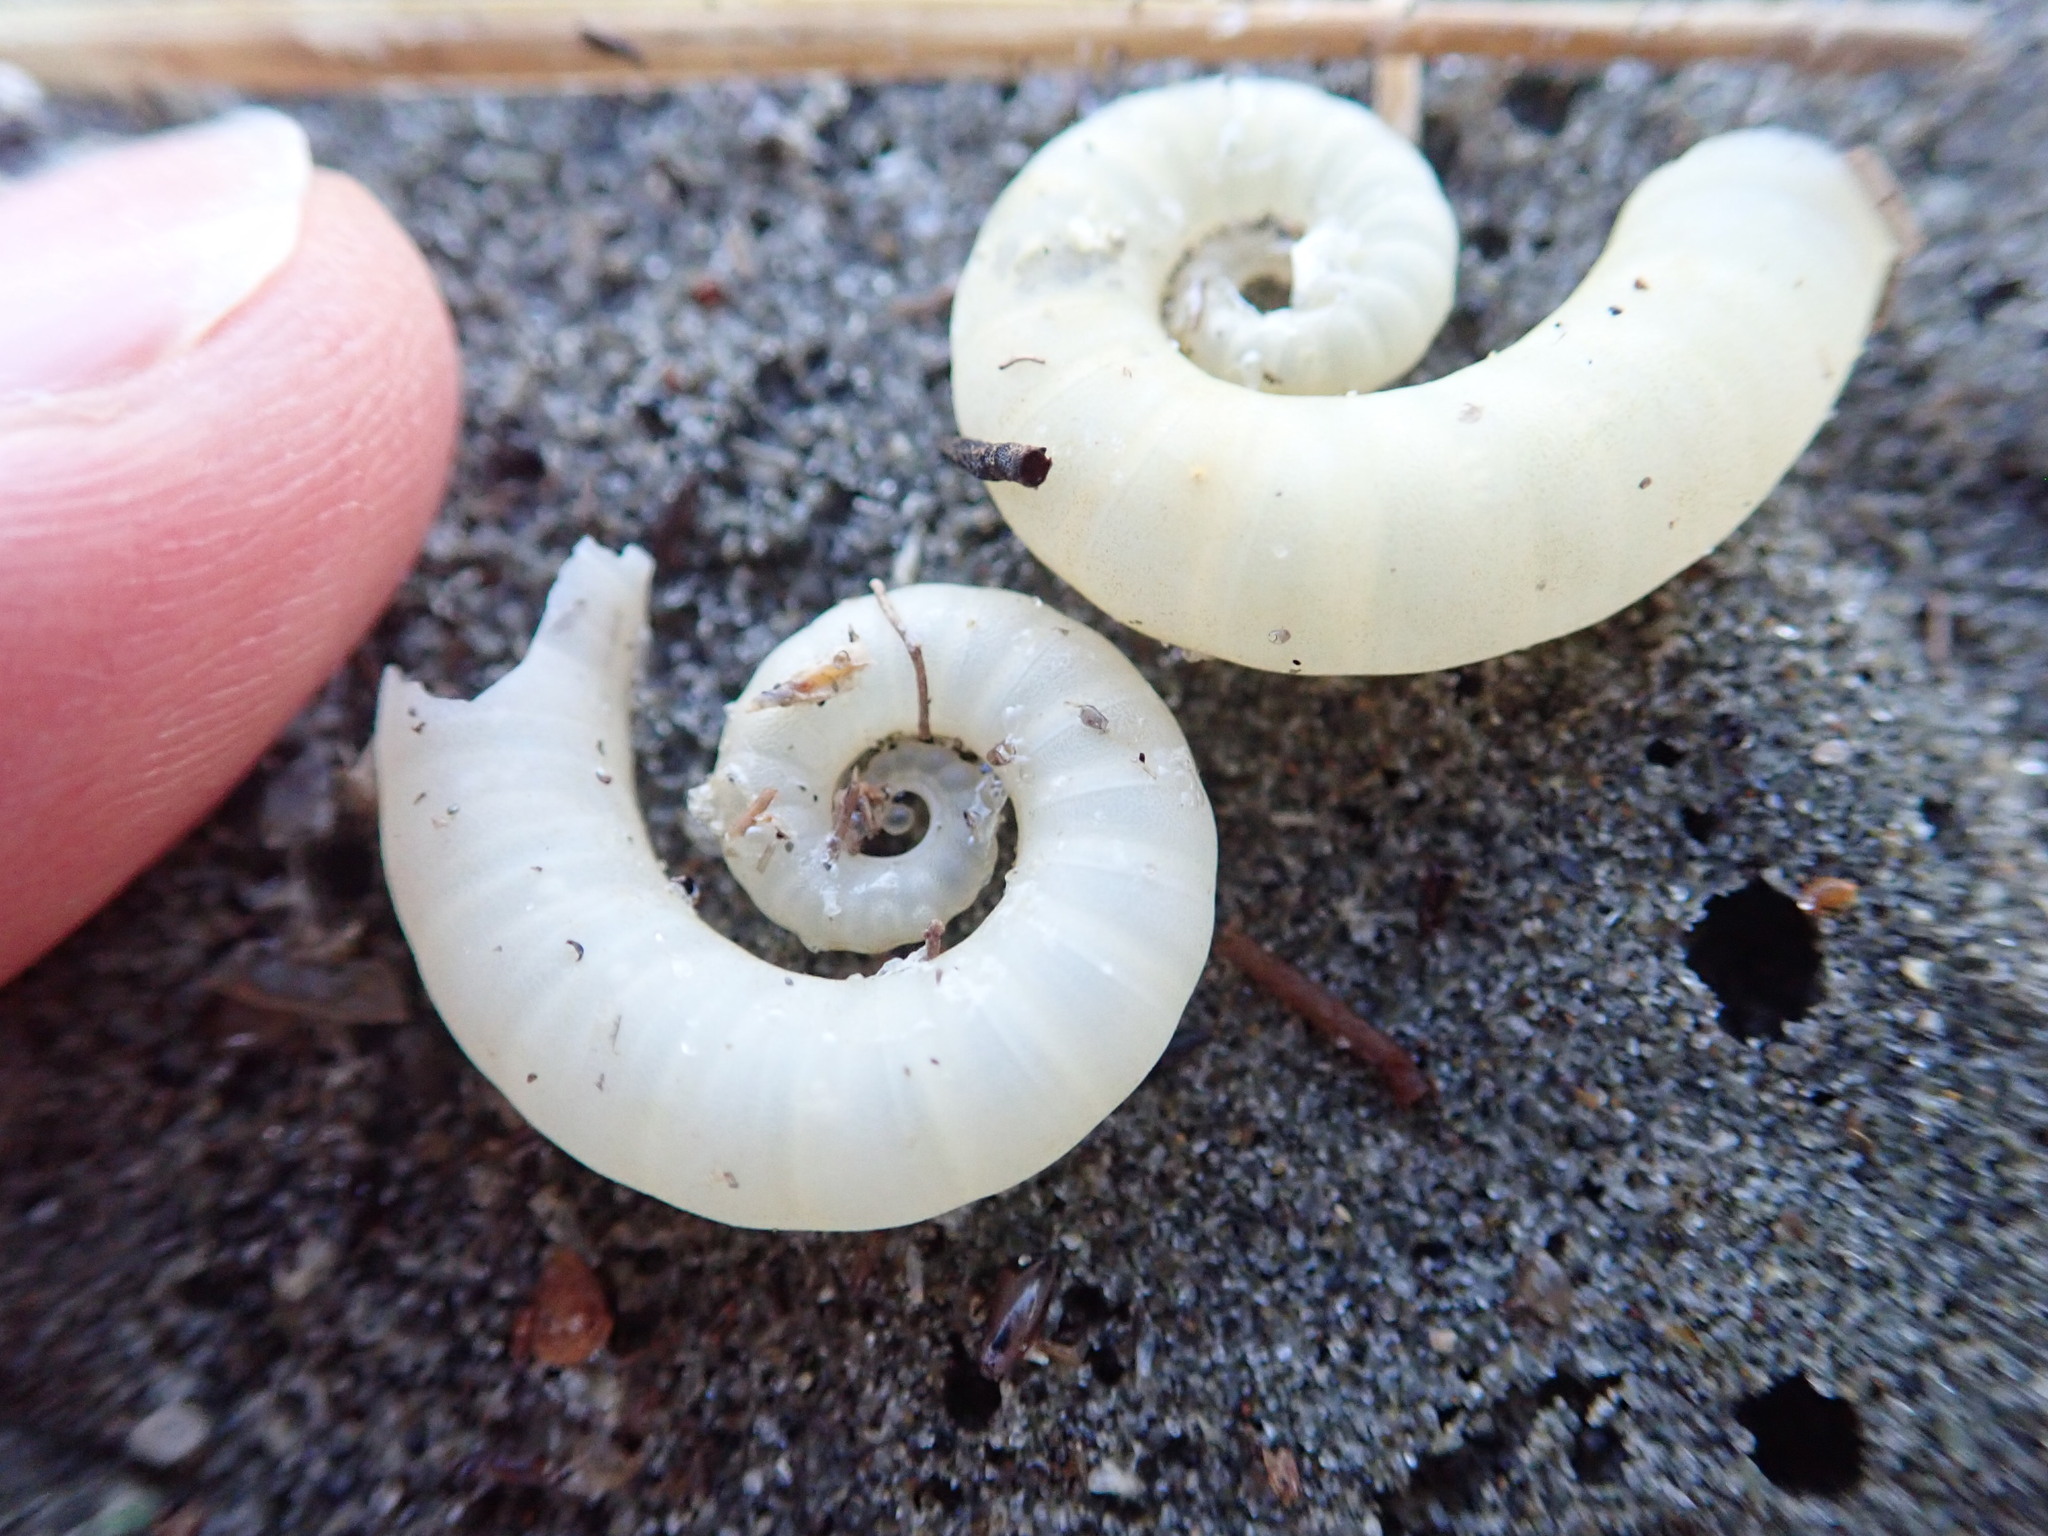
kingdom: Animalia
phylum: Mollusca
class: Cephalopoda
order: Spirulida
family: Spirulidae
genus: Spirula
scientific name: Spirula spirula
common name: Ram's horn squid
